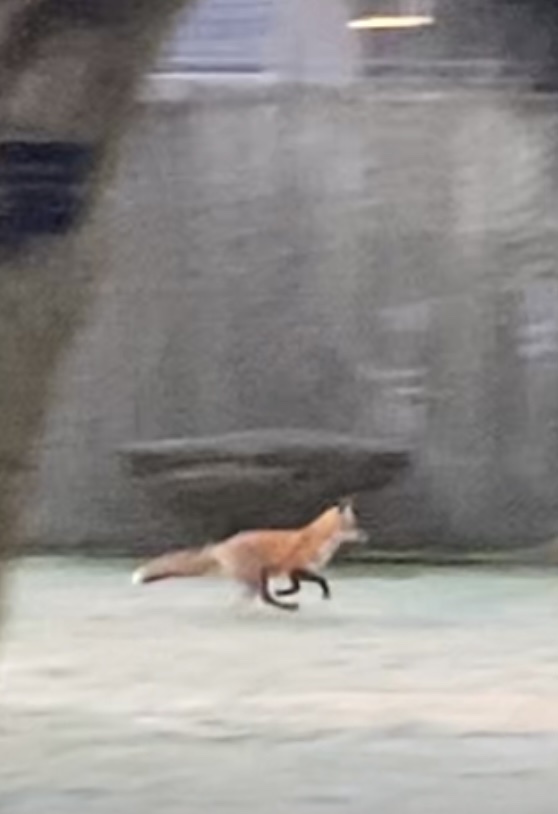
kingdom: Animalia
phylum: Chordata
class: Mammalia
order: Carnivora
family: Canidae
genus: Vulpes
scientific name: Vulpes vulpes
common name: Red fox
